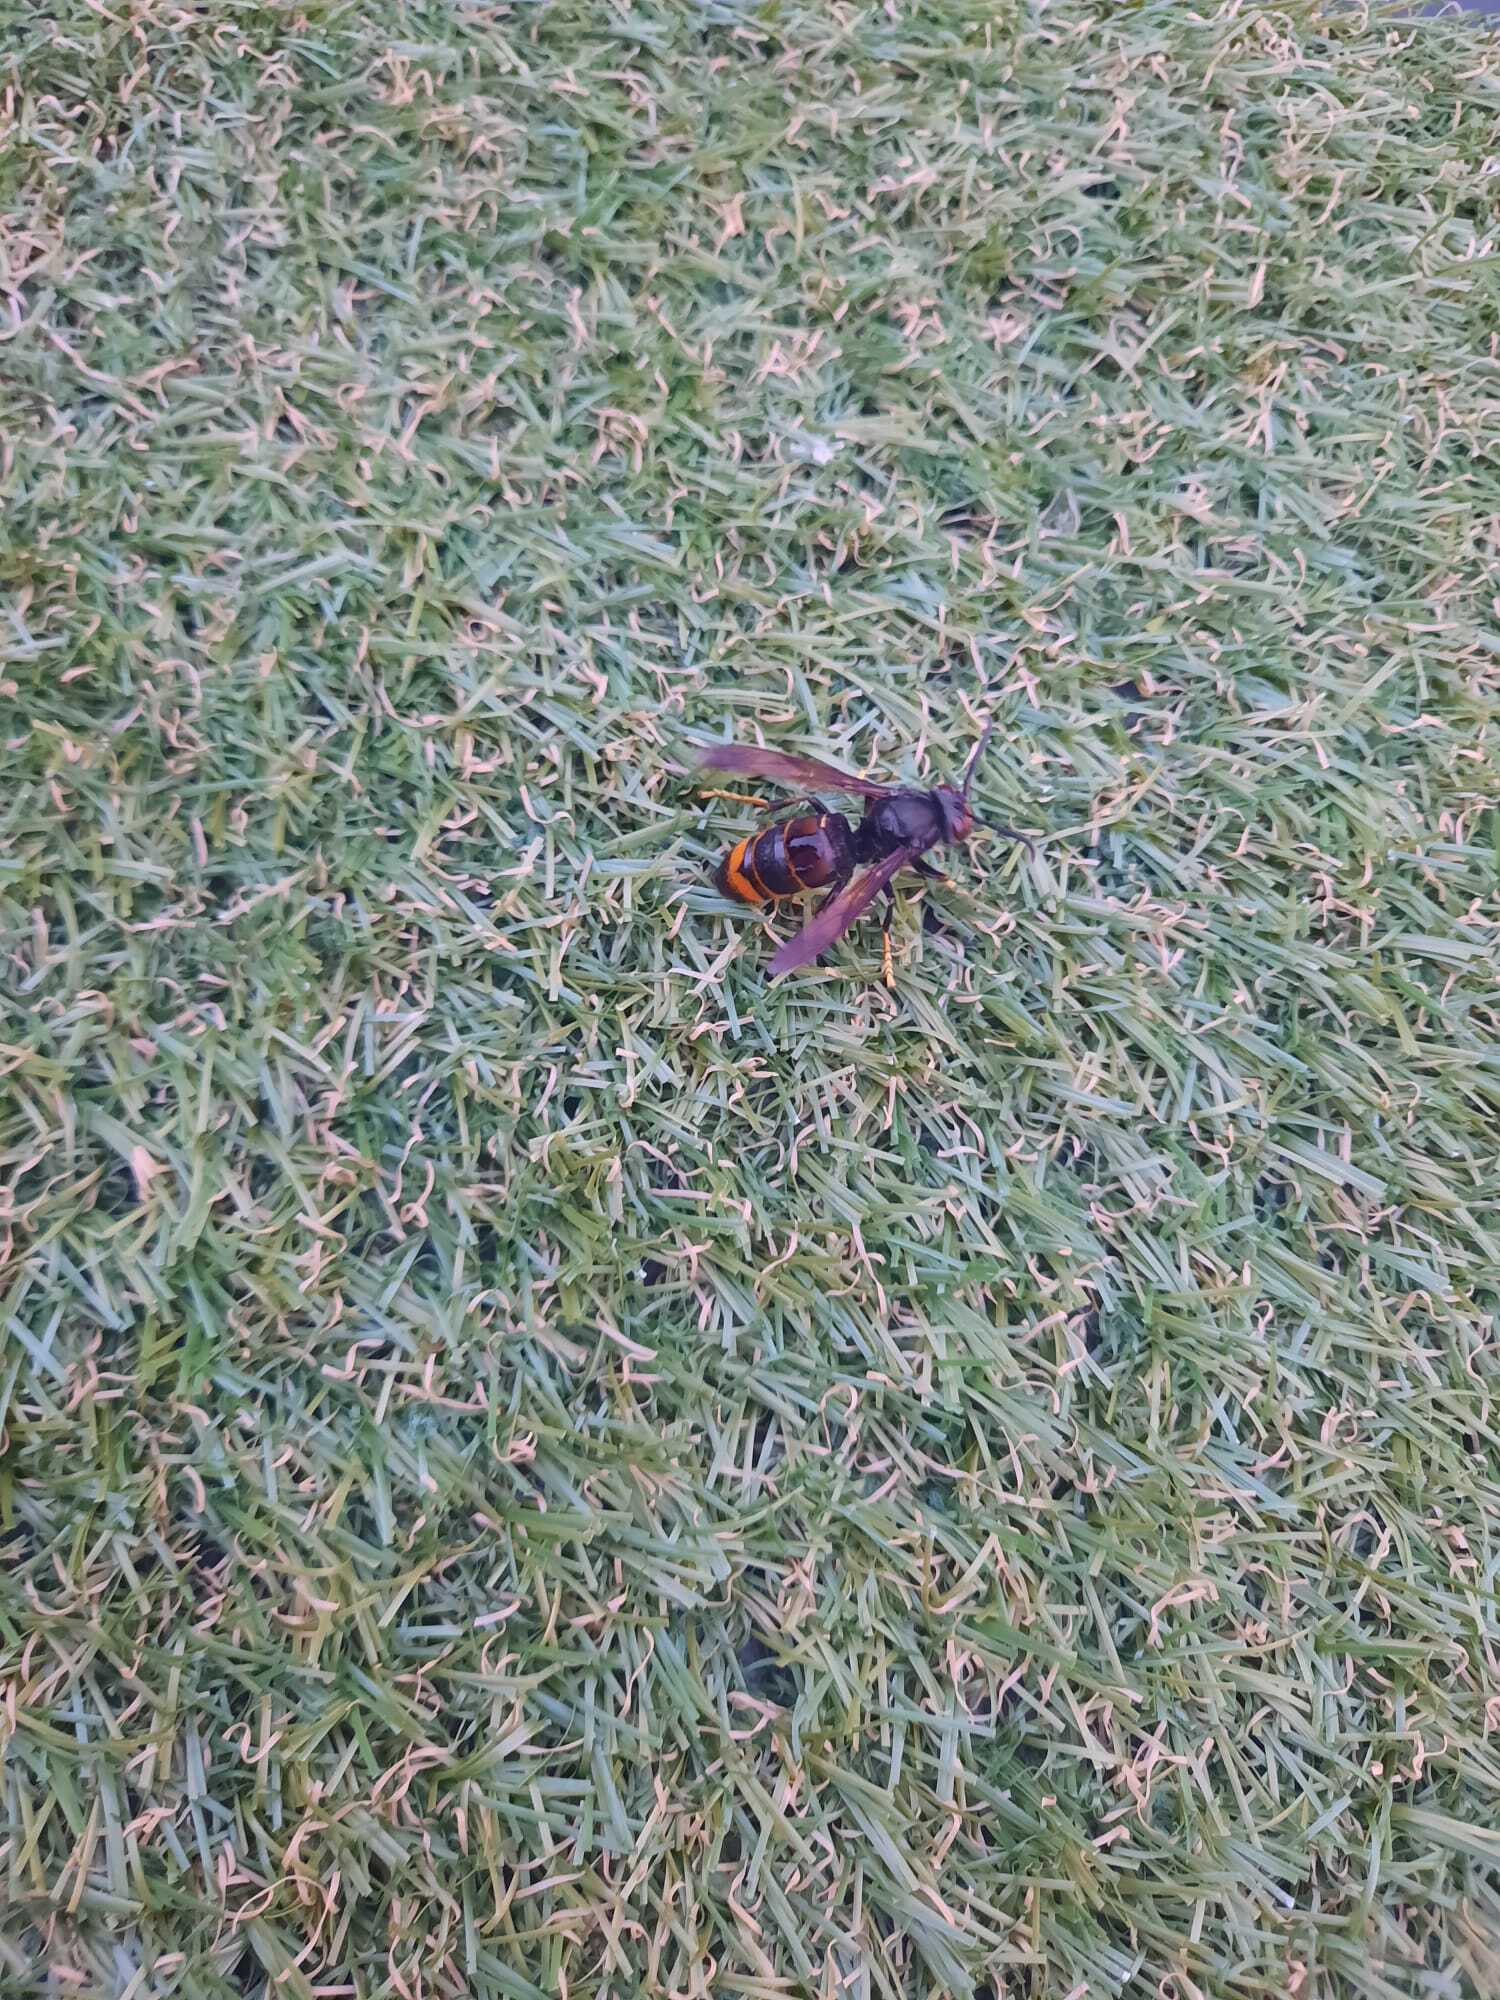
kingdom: Animalia
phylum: Arthropoda
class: Insecta
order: Hymenoptera
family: Vespidae
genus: Vespa
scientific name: Vespa velutina
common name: Asian hornet
